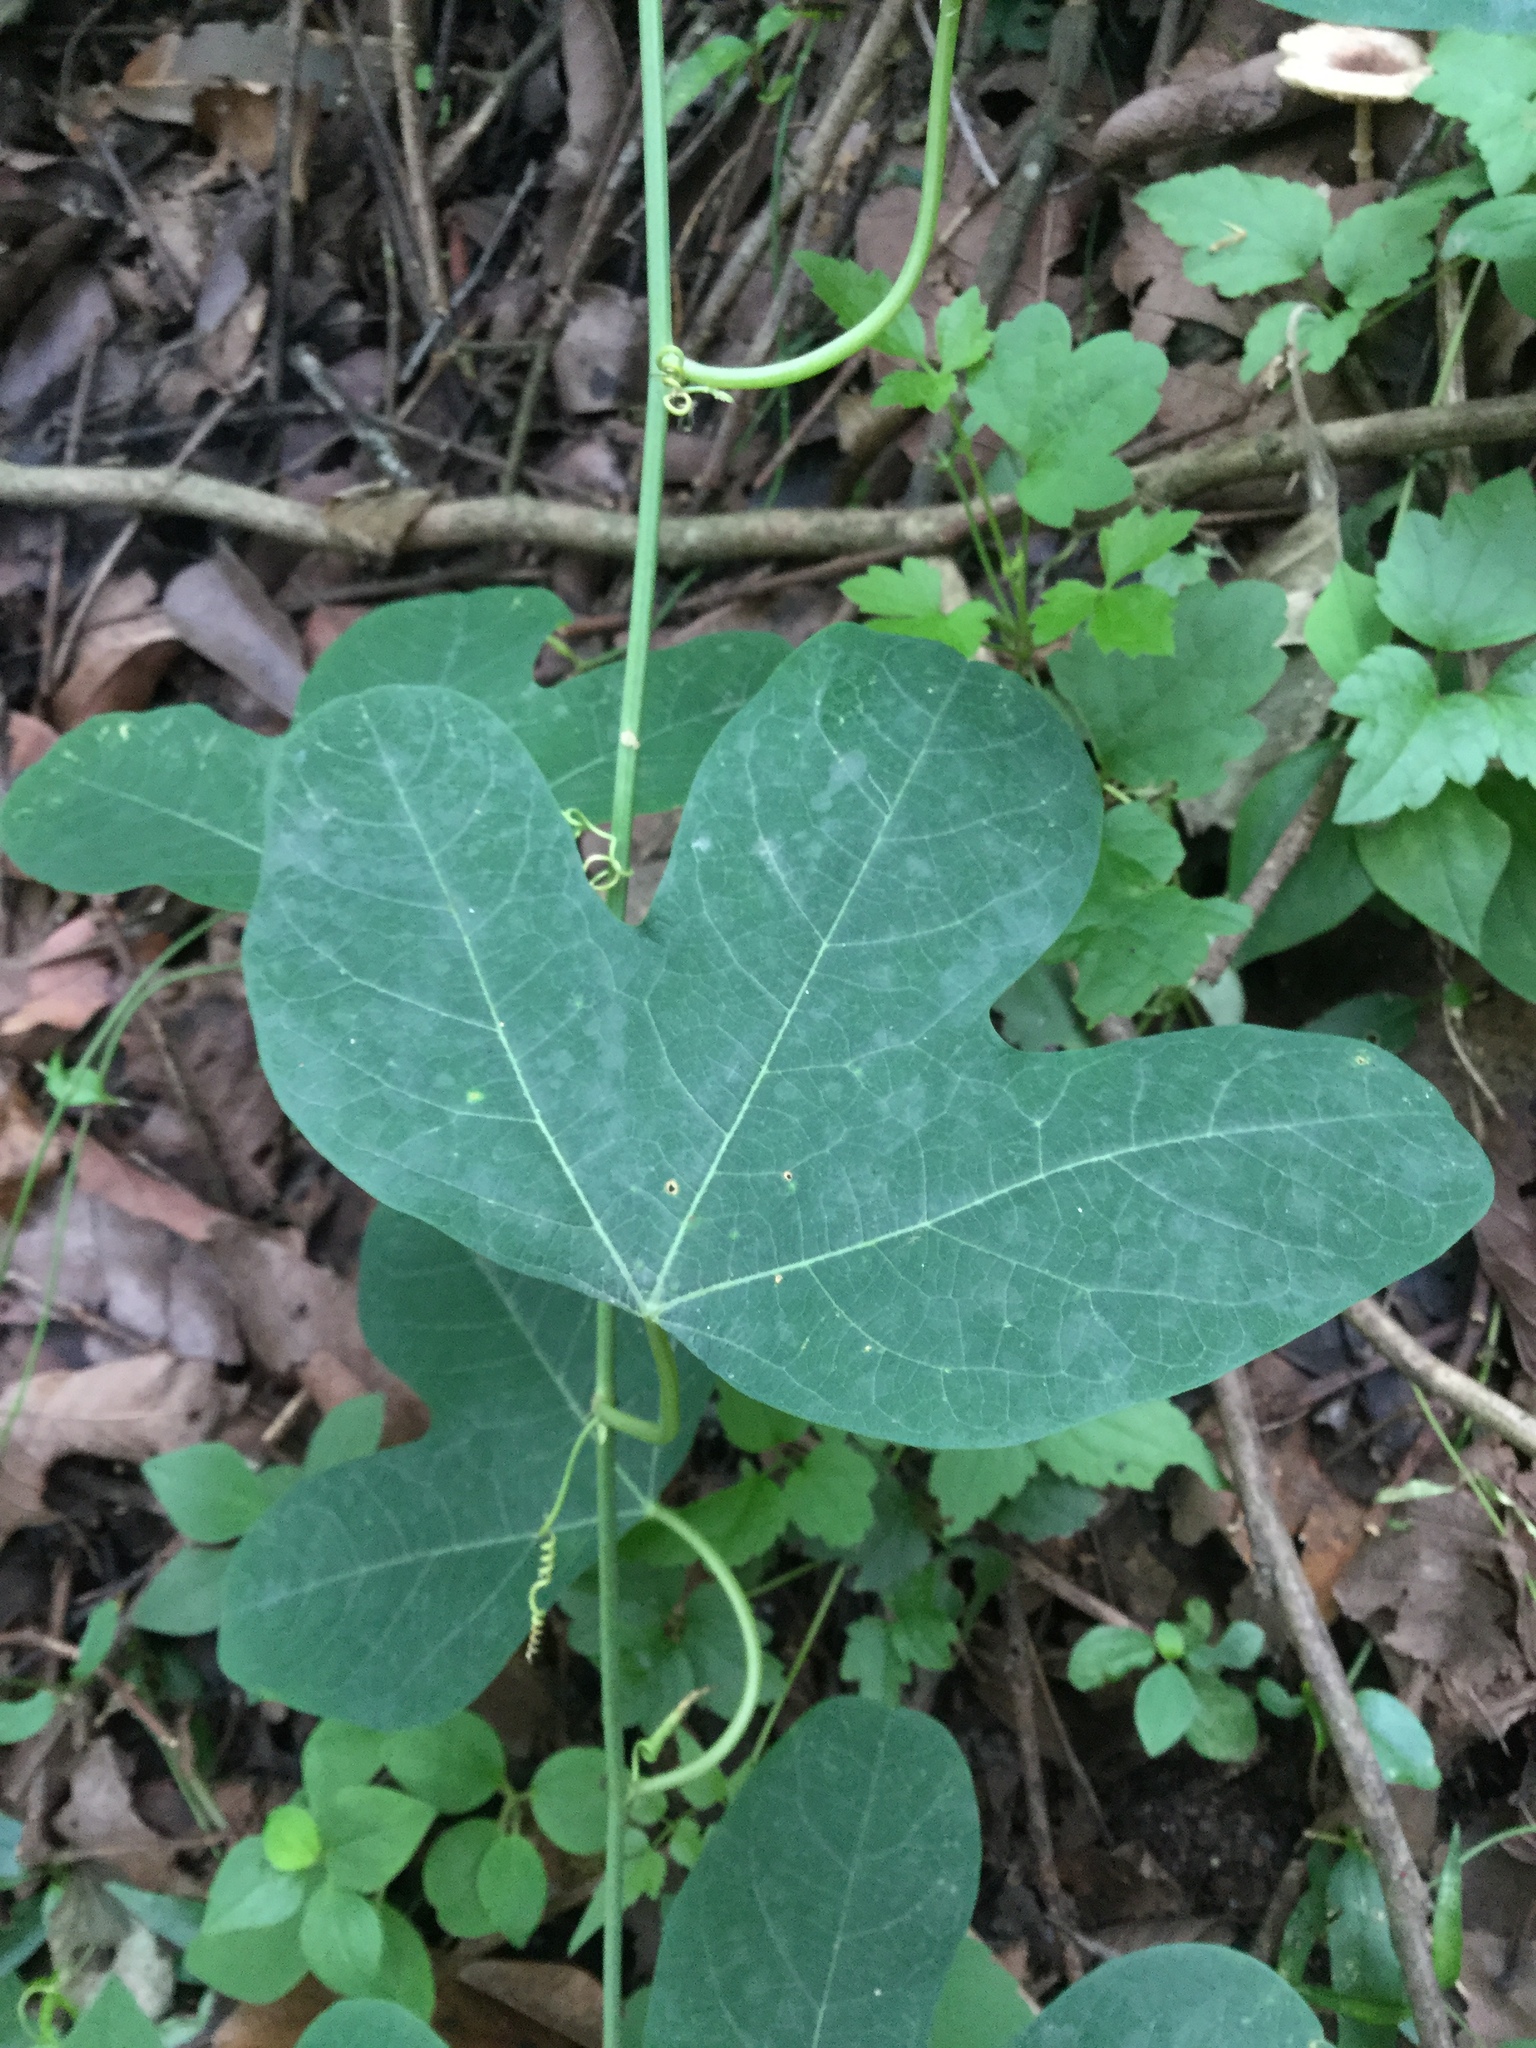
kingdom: Plantae
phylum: Tracheophyta
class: Magnoliopsida
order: Malpighiales
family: Passifloraceae
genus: Passiflora
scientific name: Passiflora affinis
